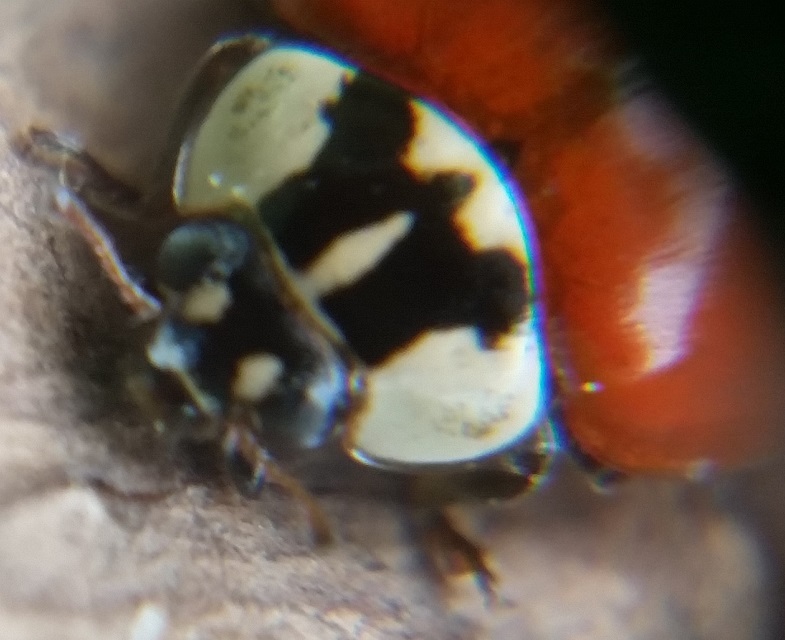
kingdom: Animalia
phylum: Arthropoda
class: Insecta
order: Coleoptera
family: Coccinellidae
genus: Adalia
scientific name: Adalia bipunctata
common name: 2-spot ladybird
